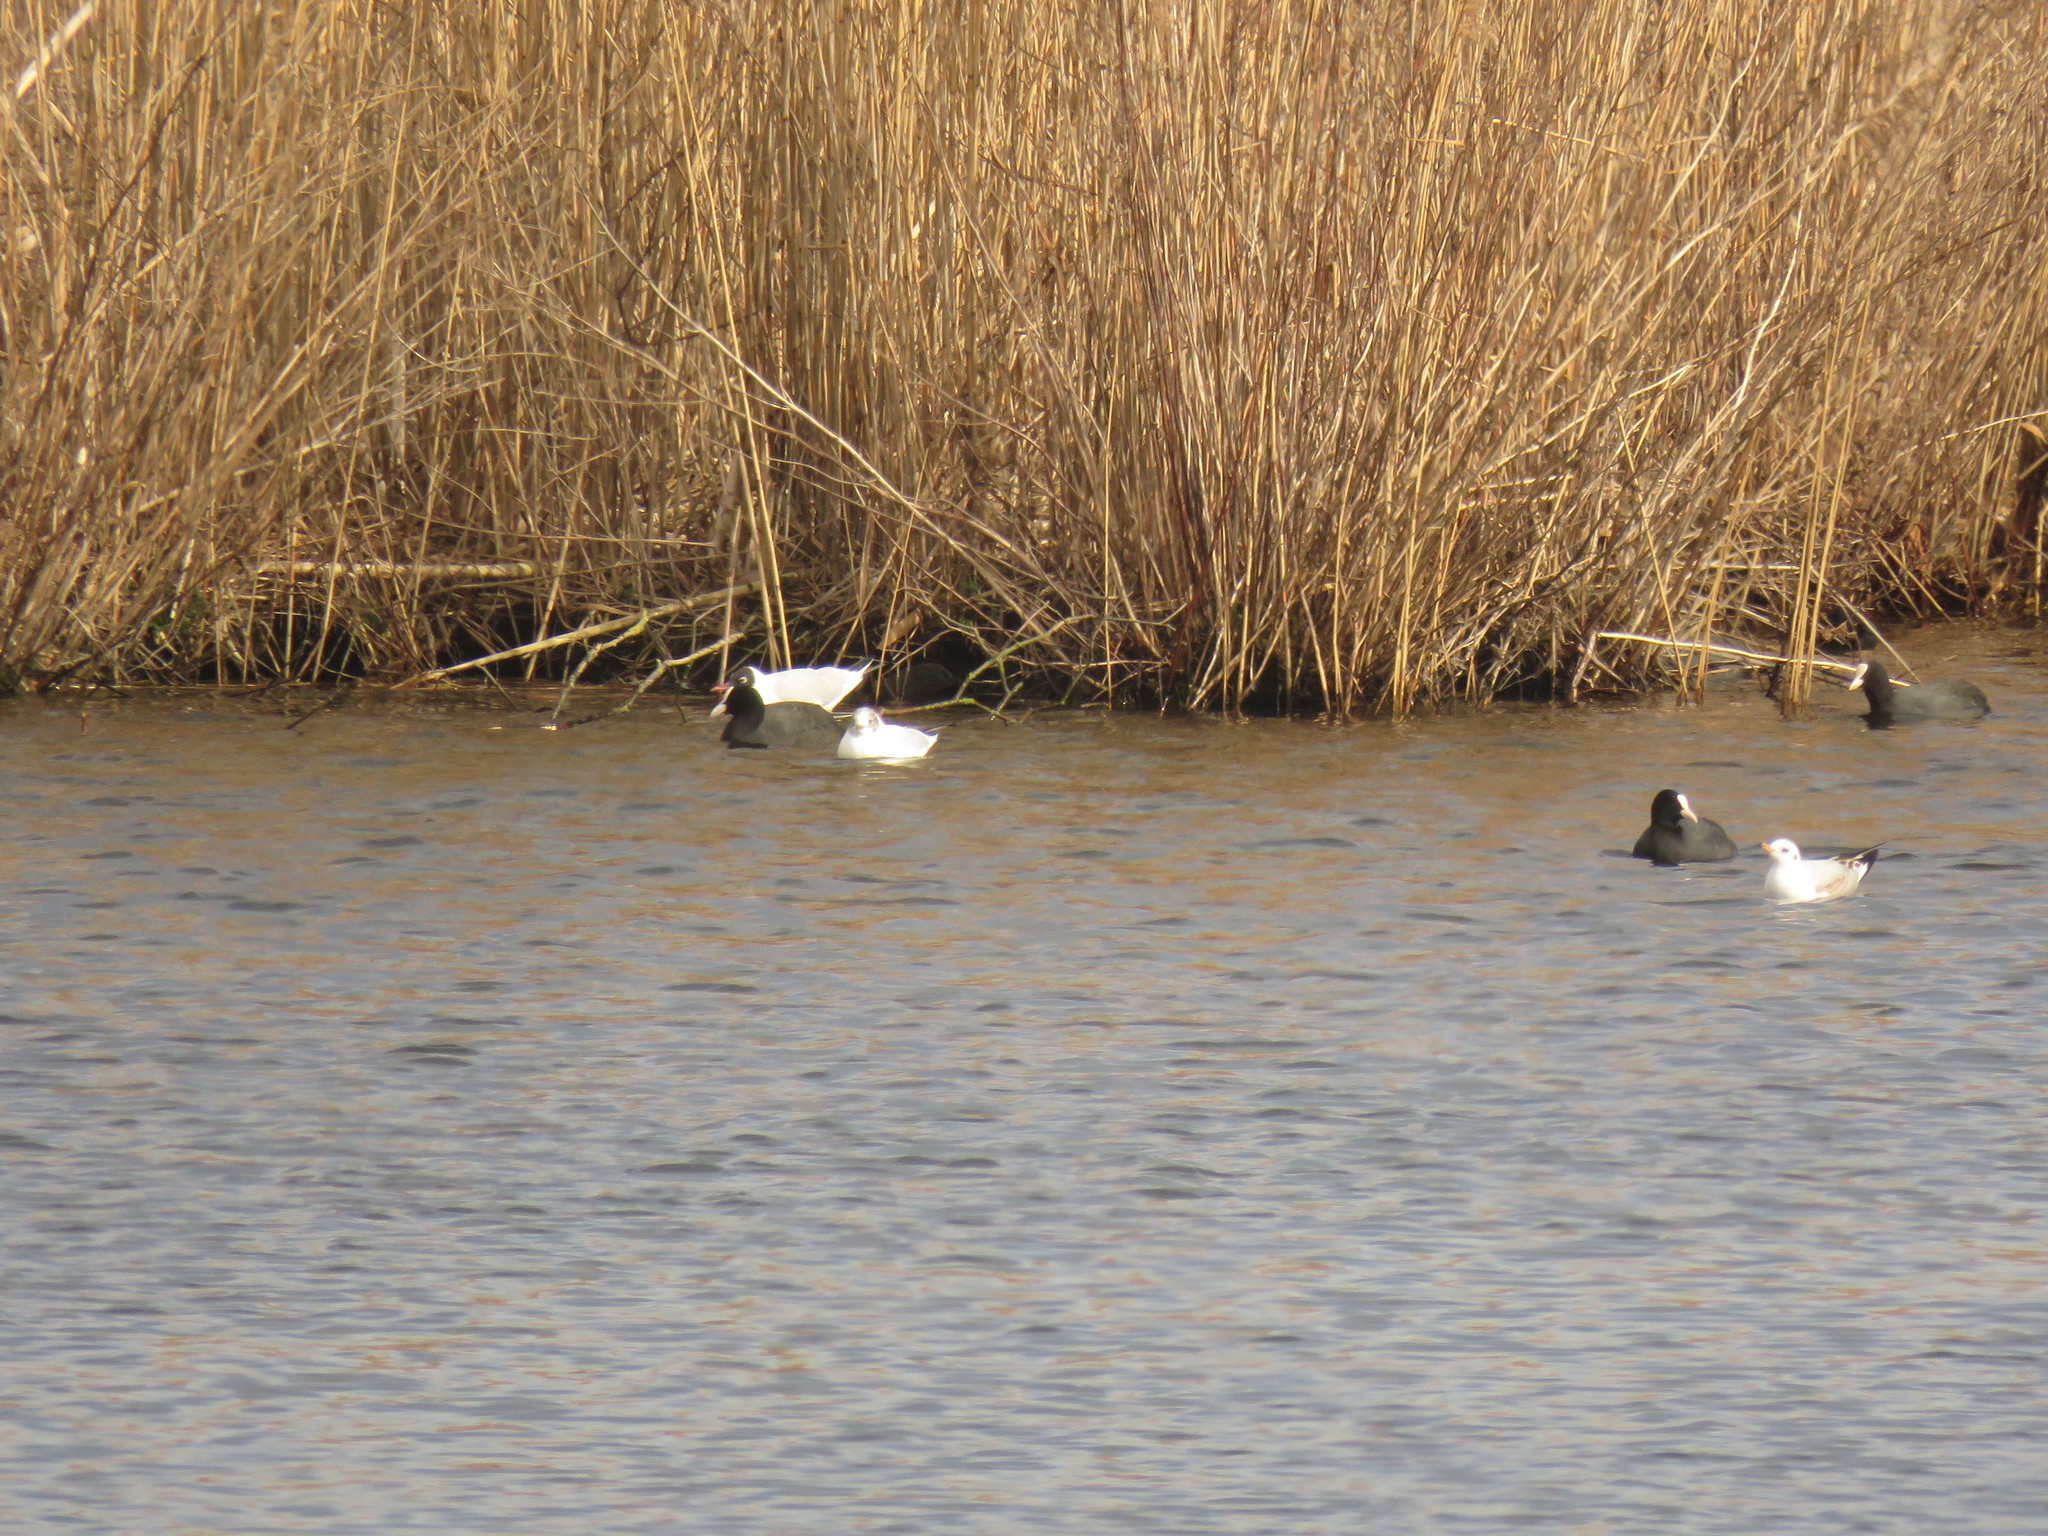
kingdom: Animalia
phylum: Chordata
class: Aves
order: Gruiformes
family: Rallidae
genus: Fulica
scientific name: Fulica atra
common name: Eurasian coot
